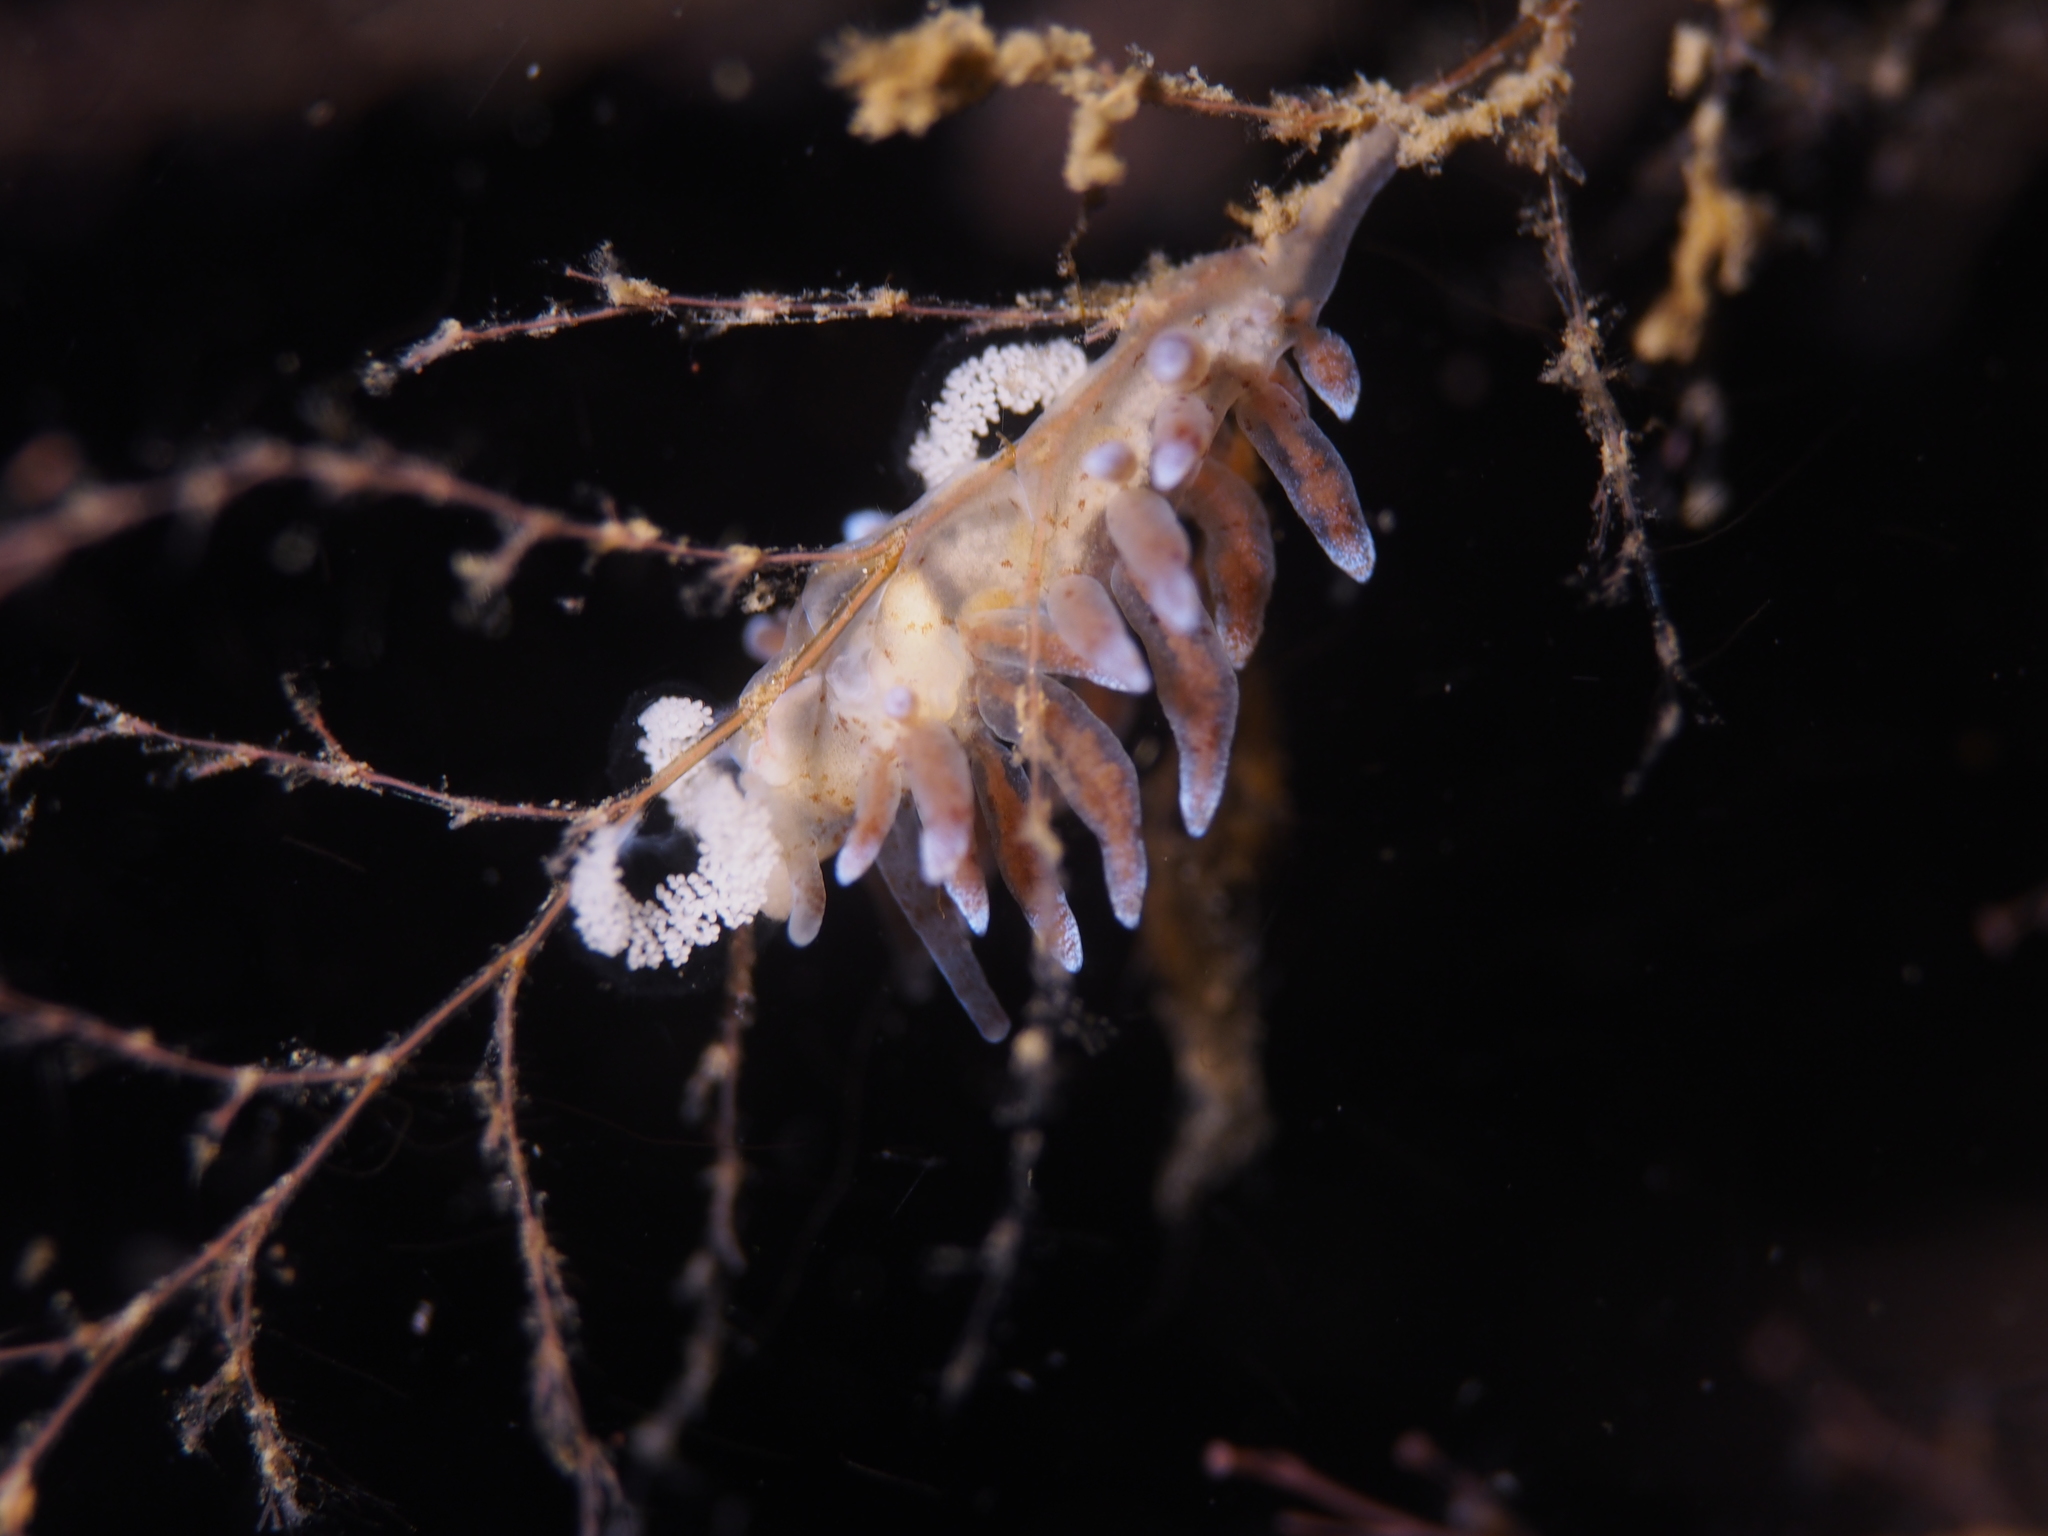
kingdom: Animalia
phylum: Mollusca
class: Gastropoda
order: Nudibranchia
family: Eubranchidae
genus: Eubranchus
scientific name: Eubranchus rupium
